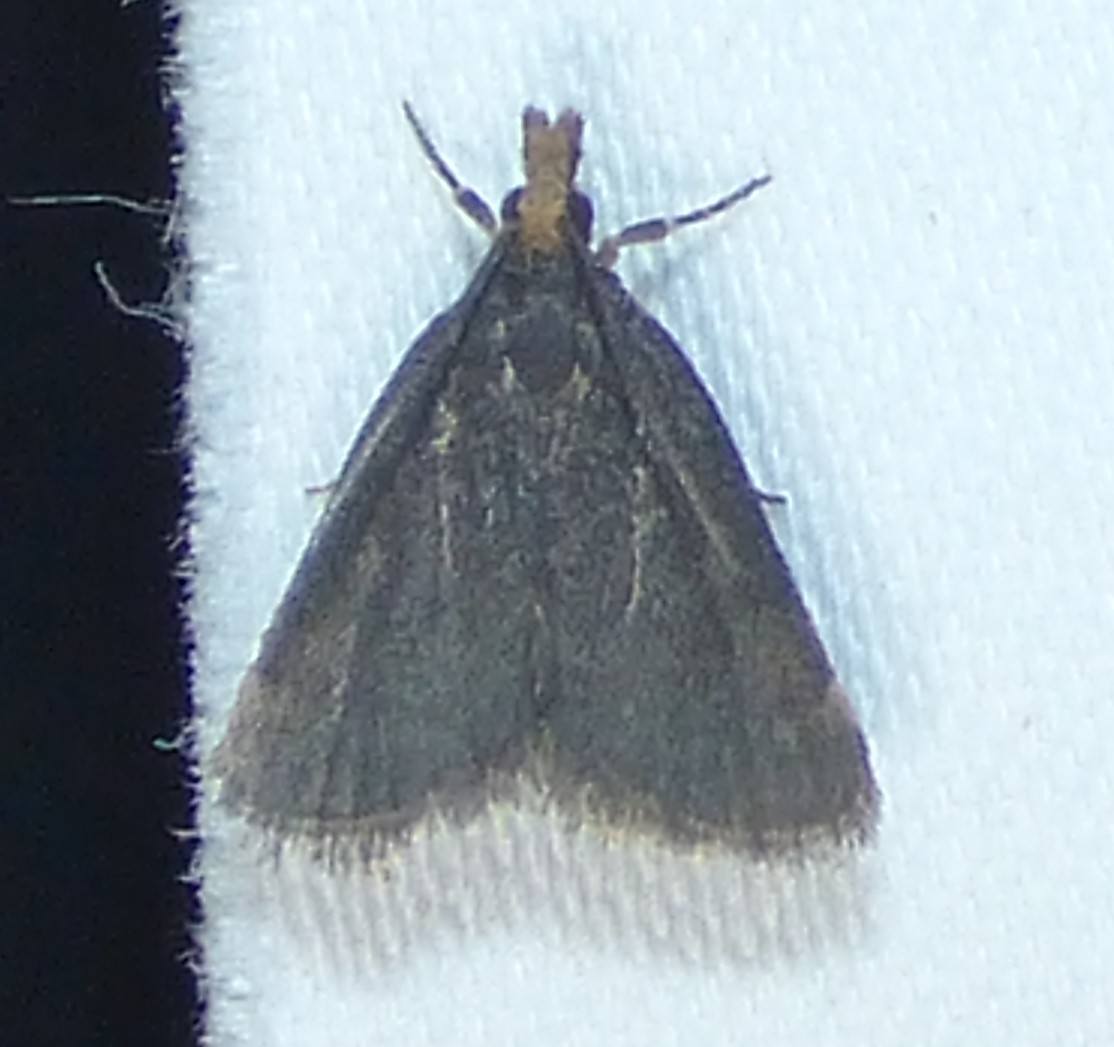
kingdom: Animalia
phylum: Arthropoda
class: Insecta
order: Lepidoptera
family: Crambidae
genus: Pyrausta
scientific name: Pyrausta merrickalis
